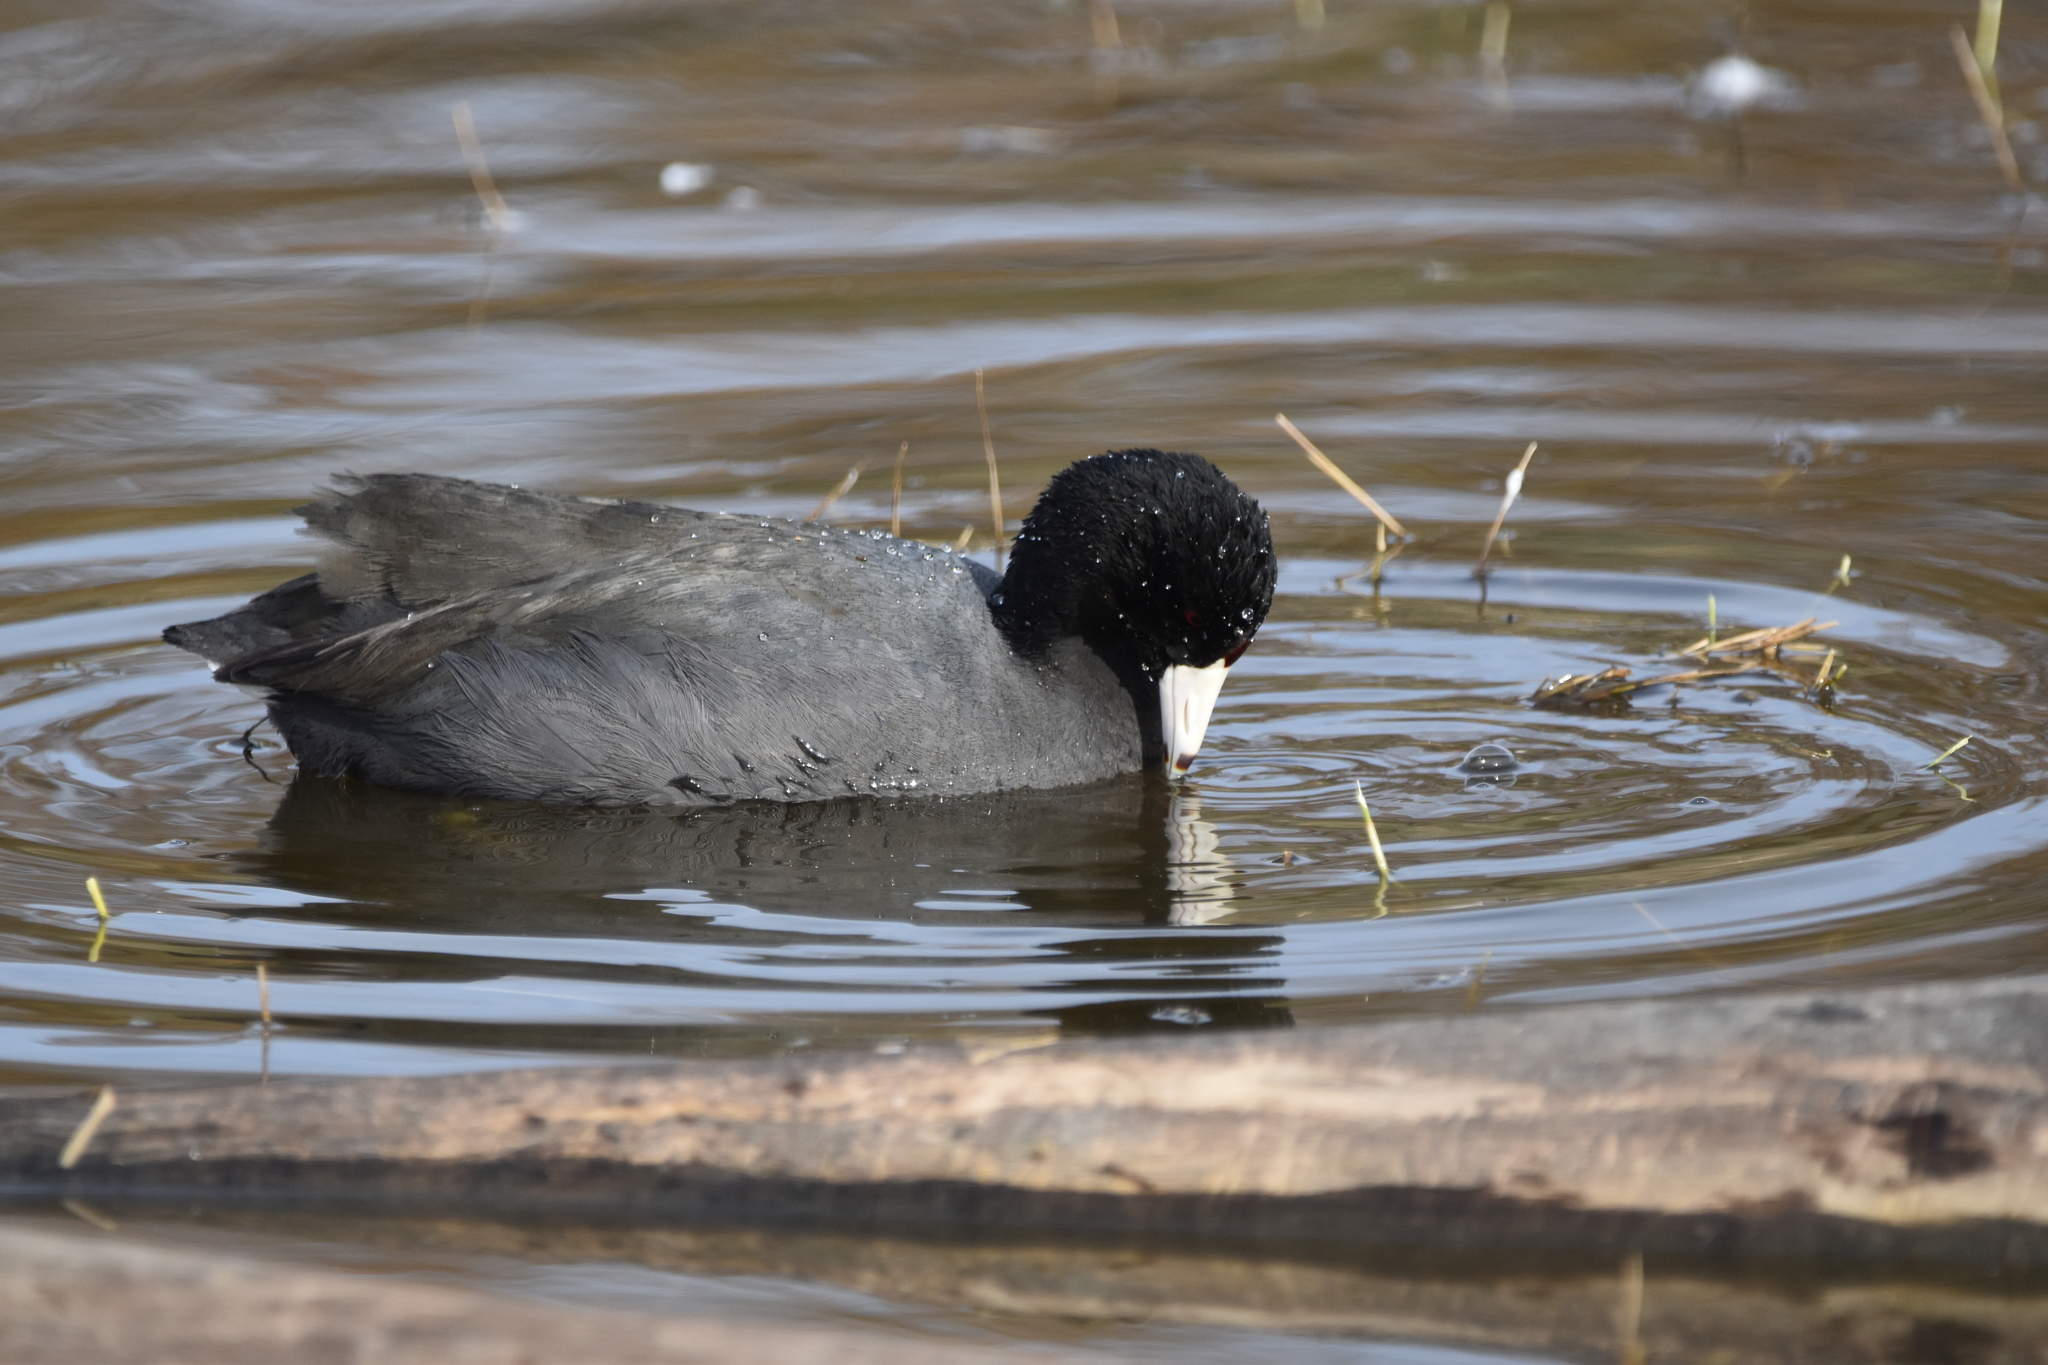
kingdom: Animalia
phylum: Chordata
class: Aves
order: Gruiformes
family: Rallidae
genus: Fulica
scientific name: Fulica americana
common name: American coot
